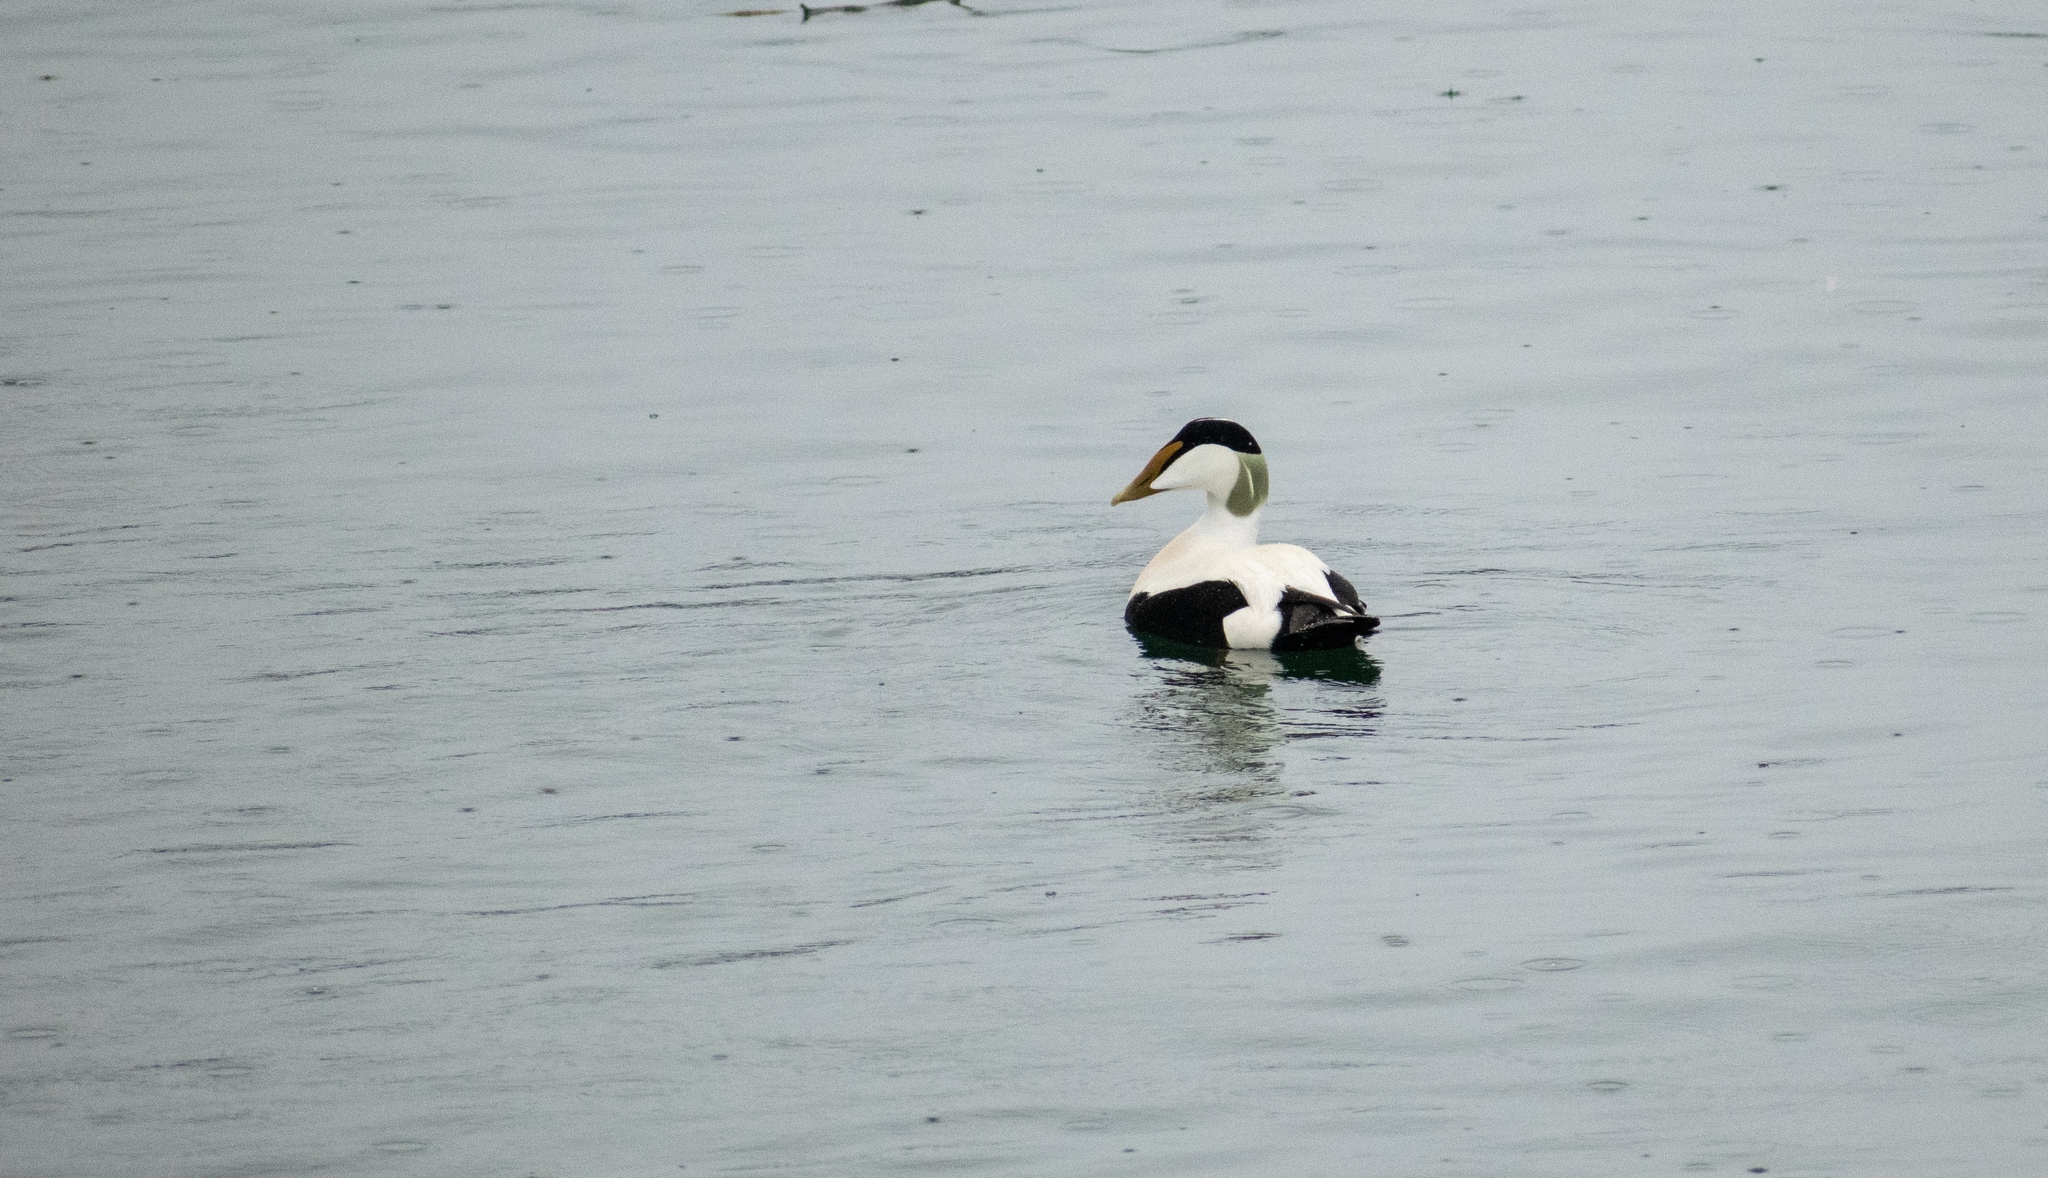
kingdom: Animalia
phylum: Chordata
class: Aves
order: Anseriformes
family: Anatidae
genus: Somateria
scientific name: Somateria mollissima
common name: Common eider
